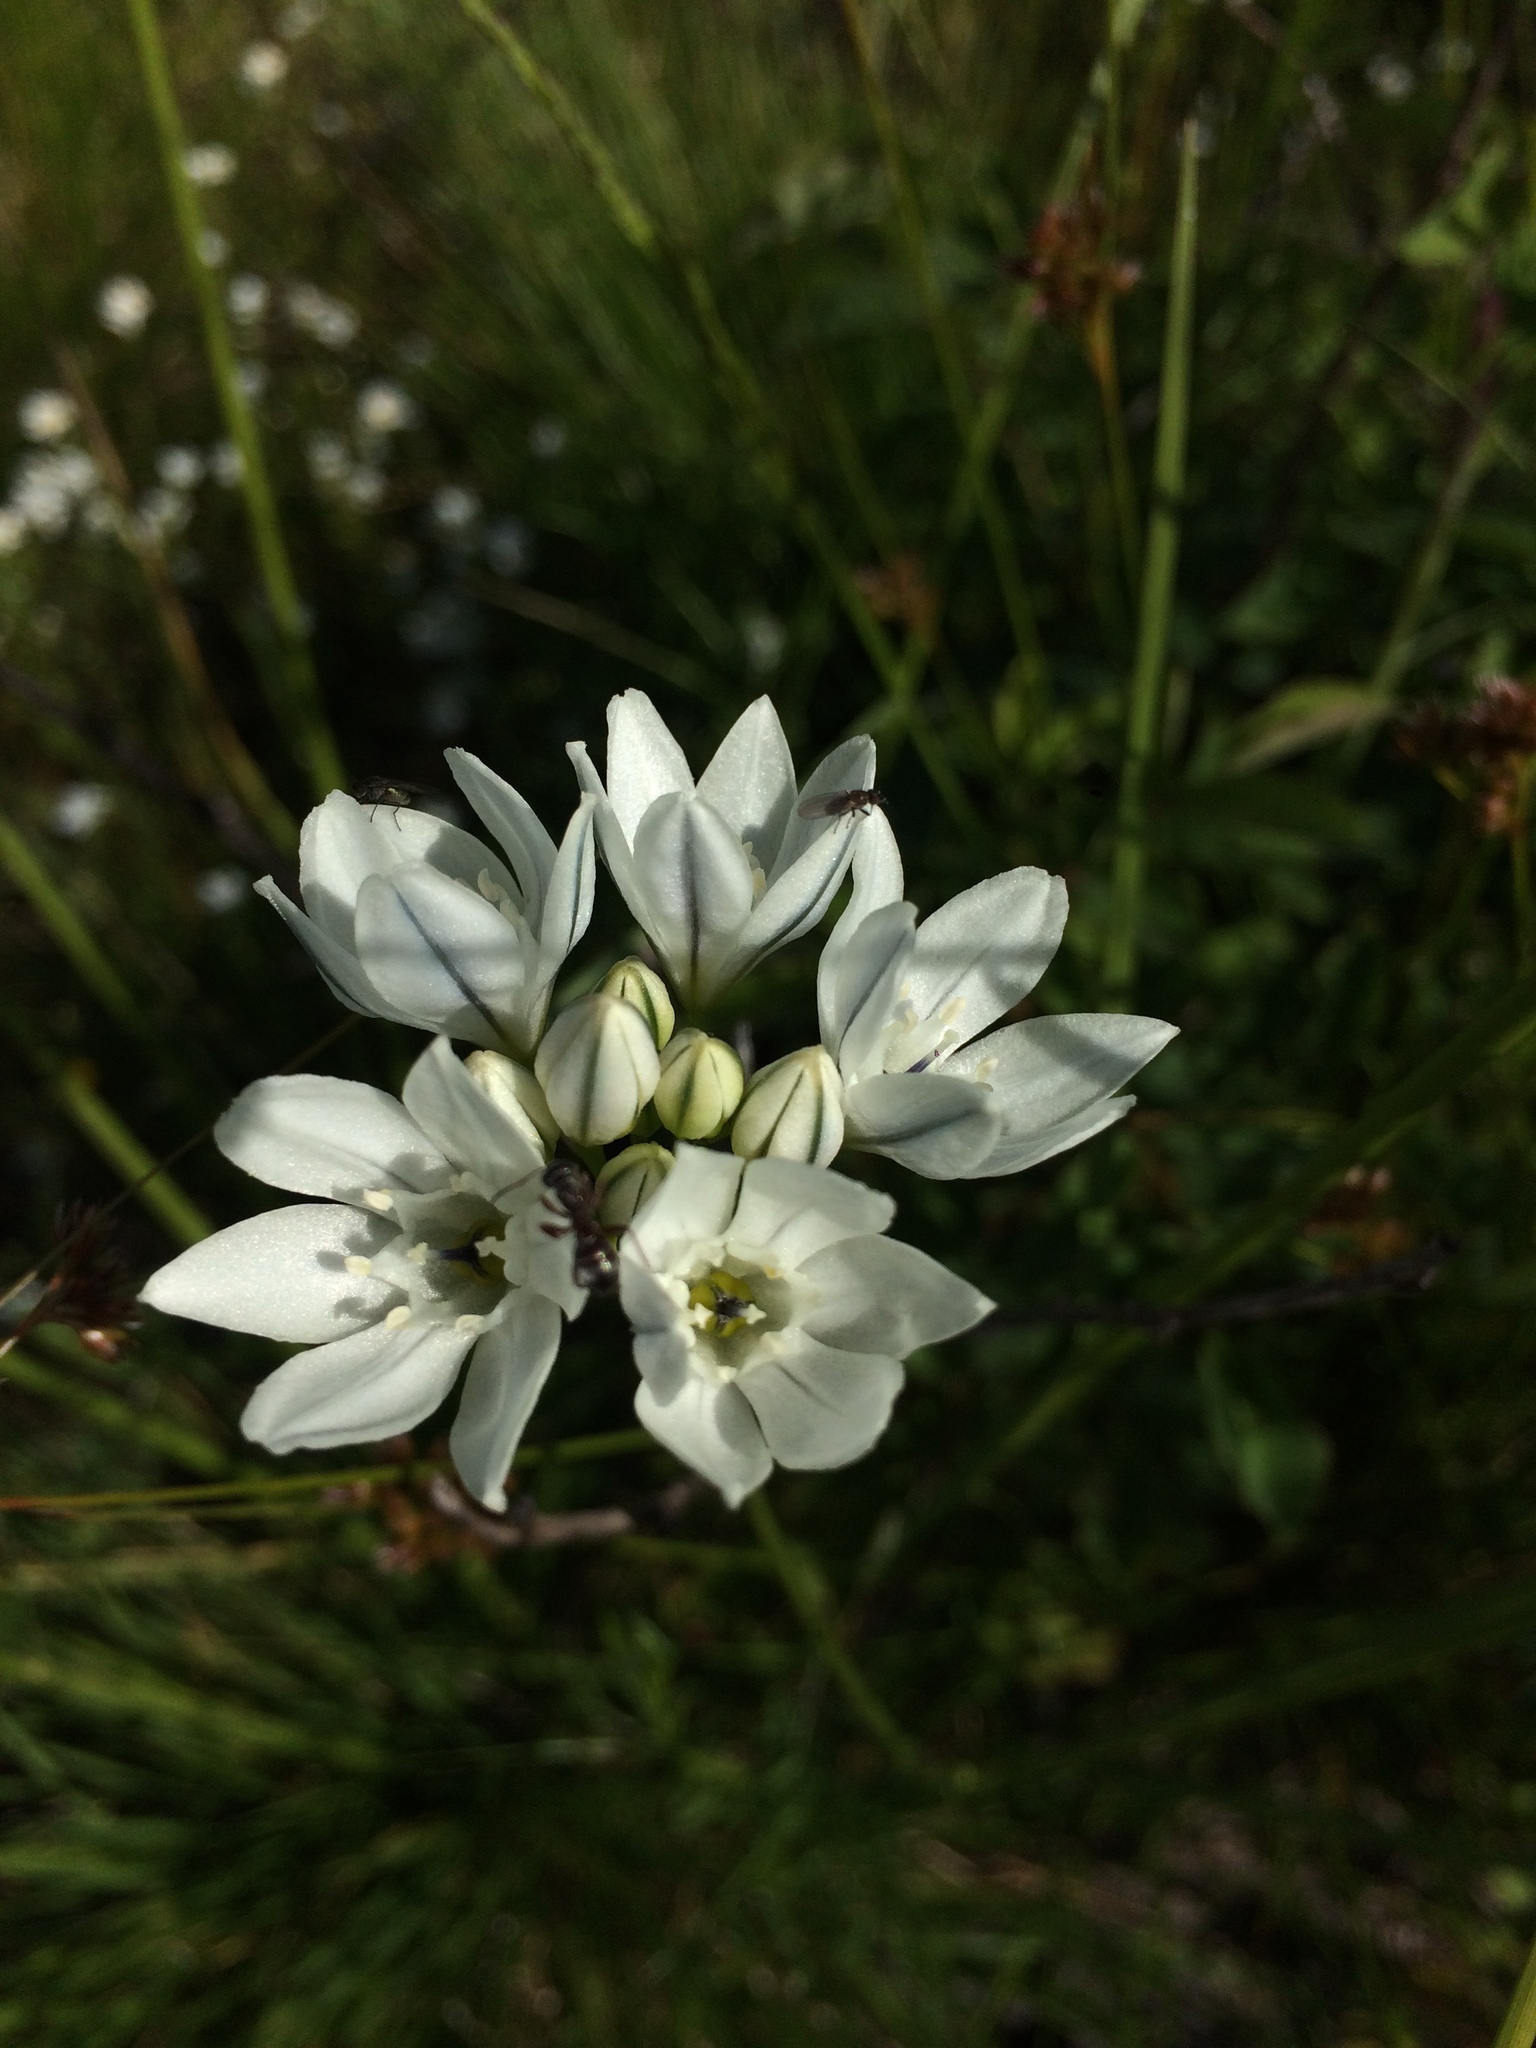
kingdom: Plantae
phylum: Tracheophyta
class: Liliopsida
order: Asparagales
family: Asparagaceae
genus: Triteleia
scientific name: Triteleia hyacinthina
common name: White brodiaea
